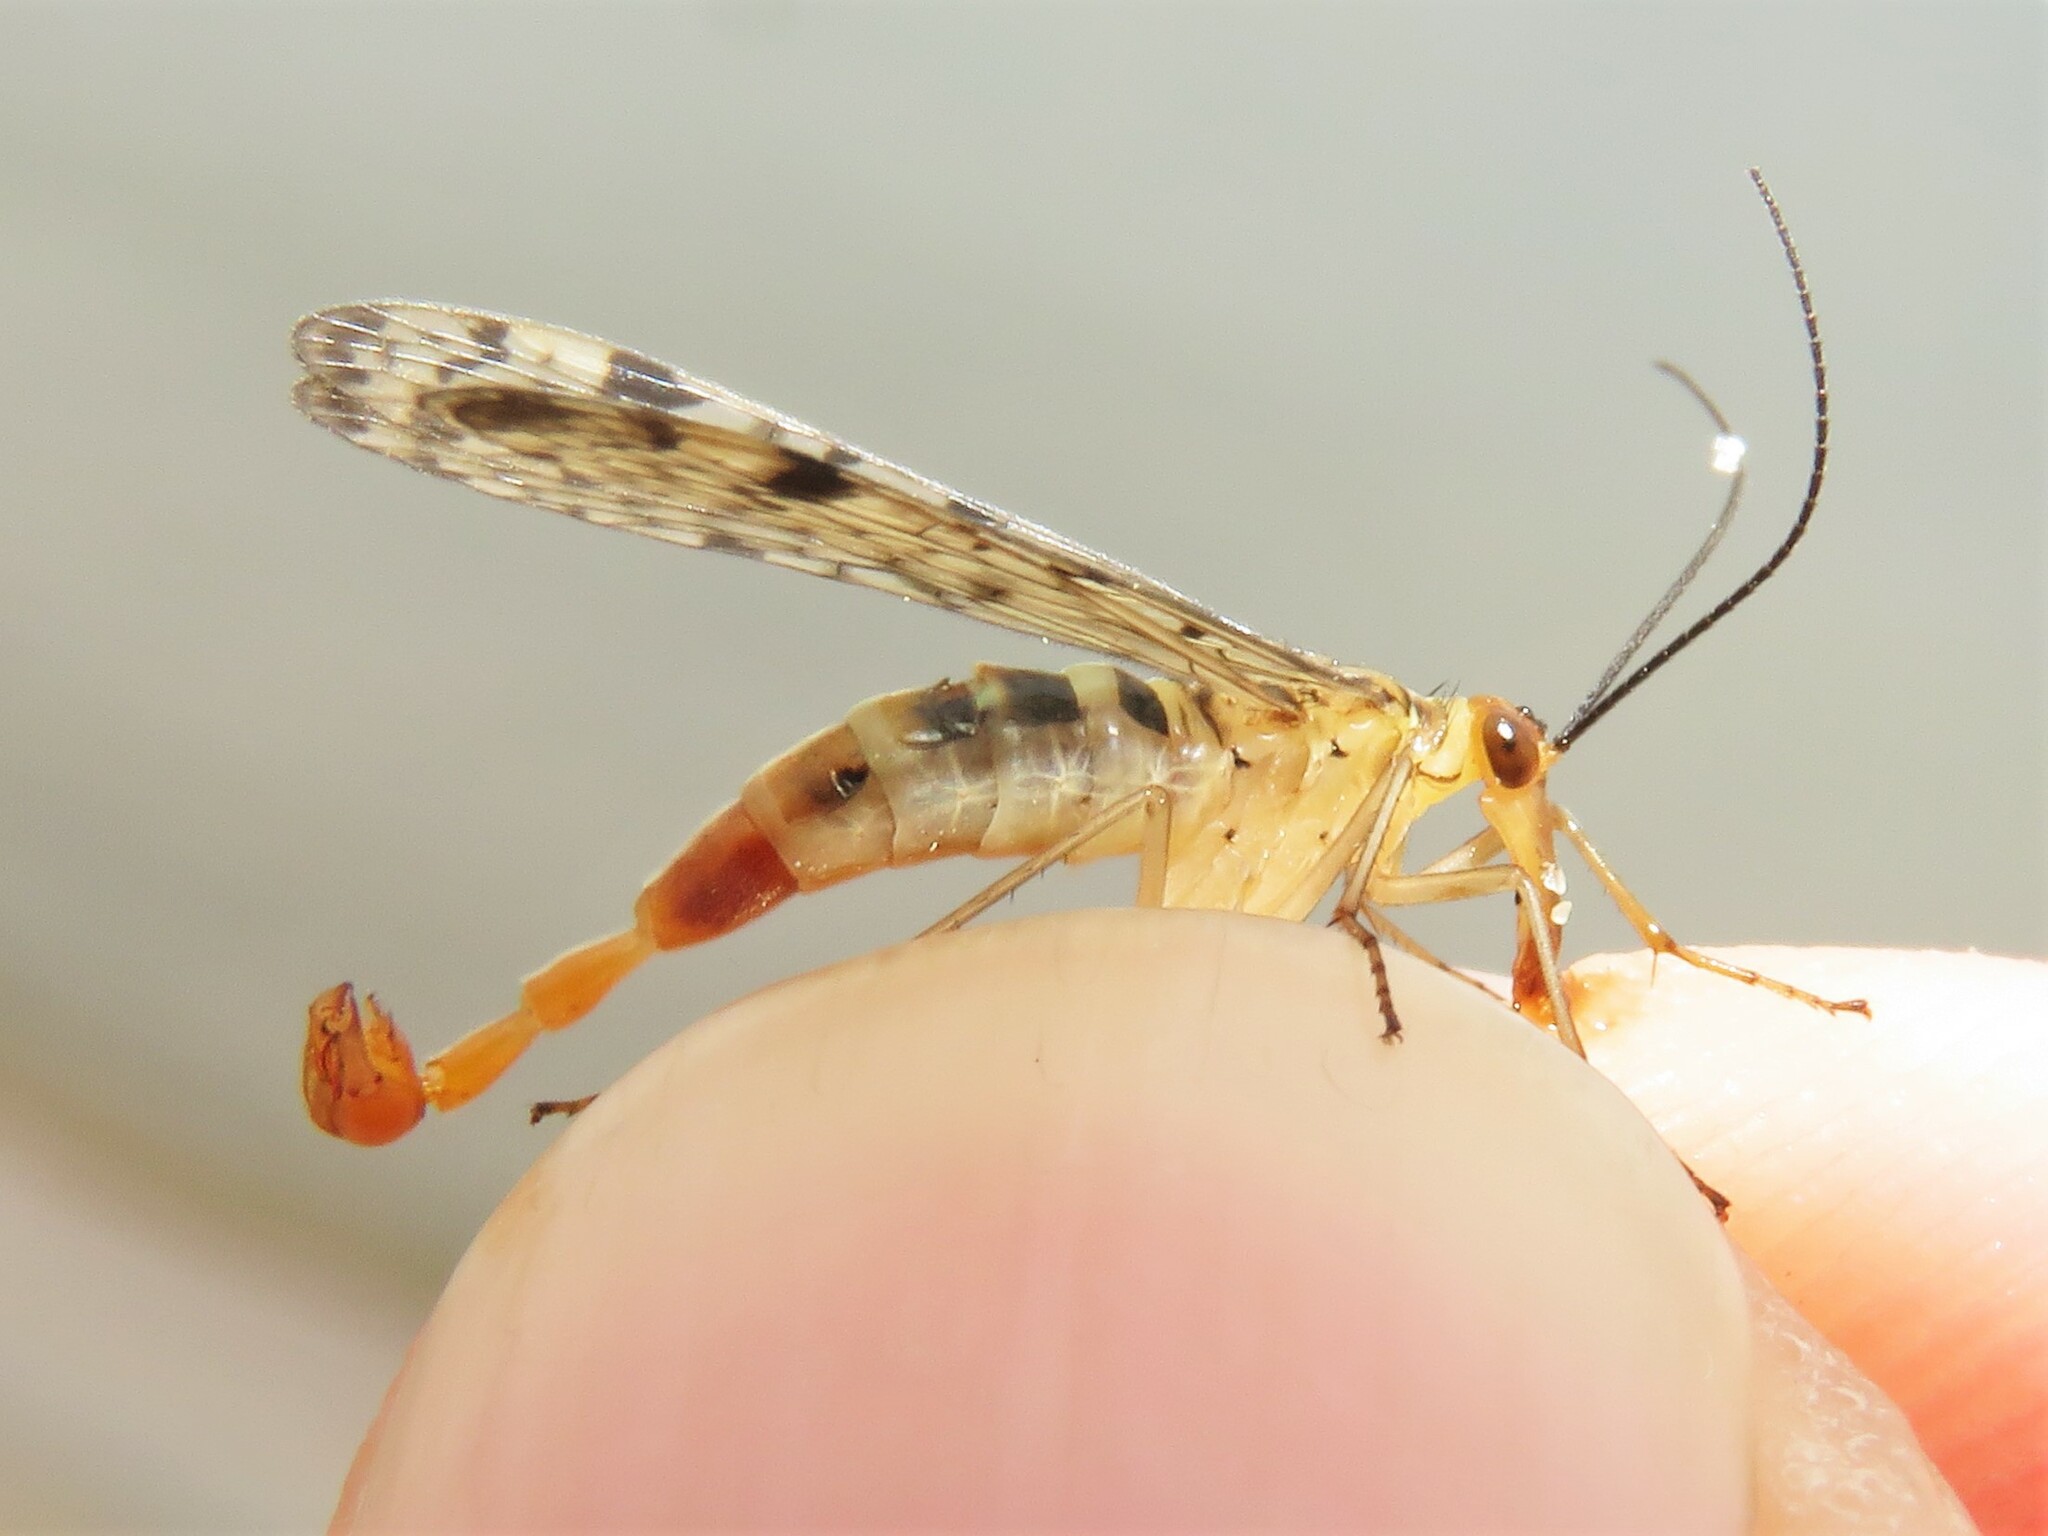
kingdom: Animalia
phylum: Arthropoda
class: Insecta
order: Mecoptera
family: Panorpidae
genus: Panorpa
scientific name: Panorpa nebulosa
